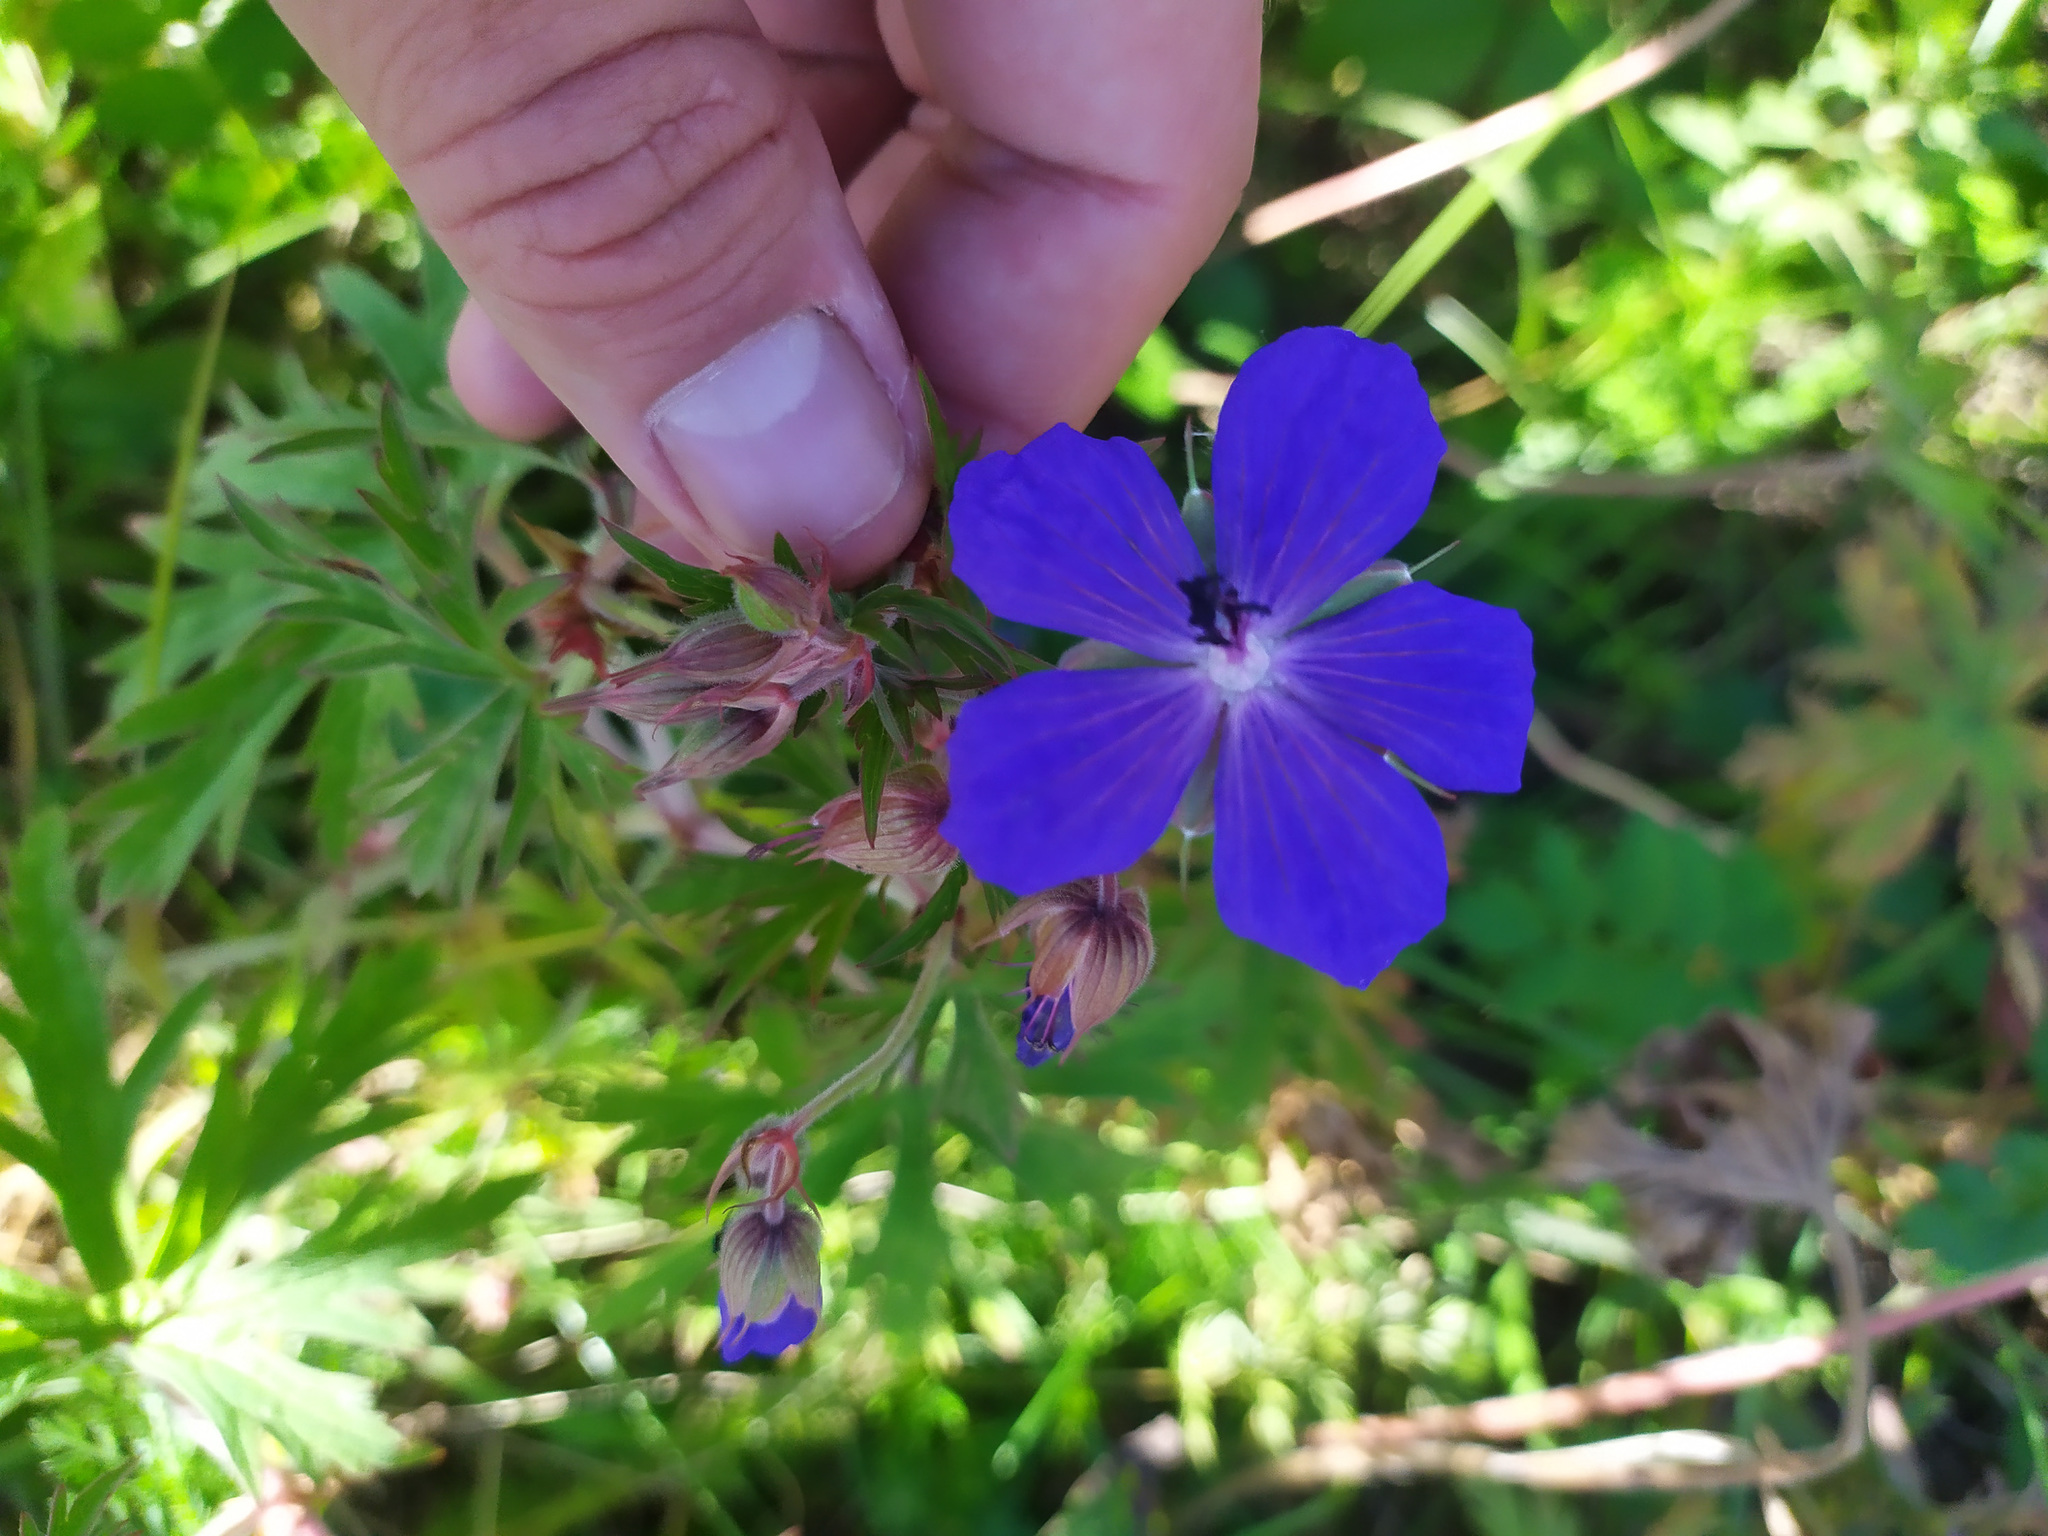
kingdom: Plantae
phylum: Tracheophyta
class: Magnoliopsida
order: Geraniales
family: Geraniaceae
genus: Geranium
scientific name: Geranium pratense
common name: Meadow crane's-bill
